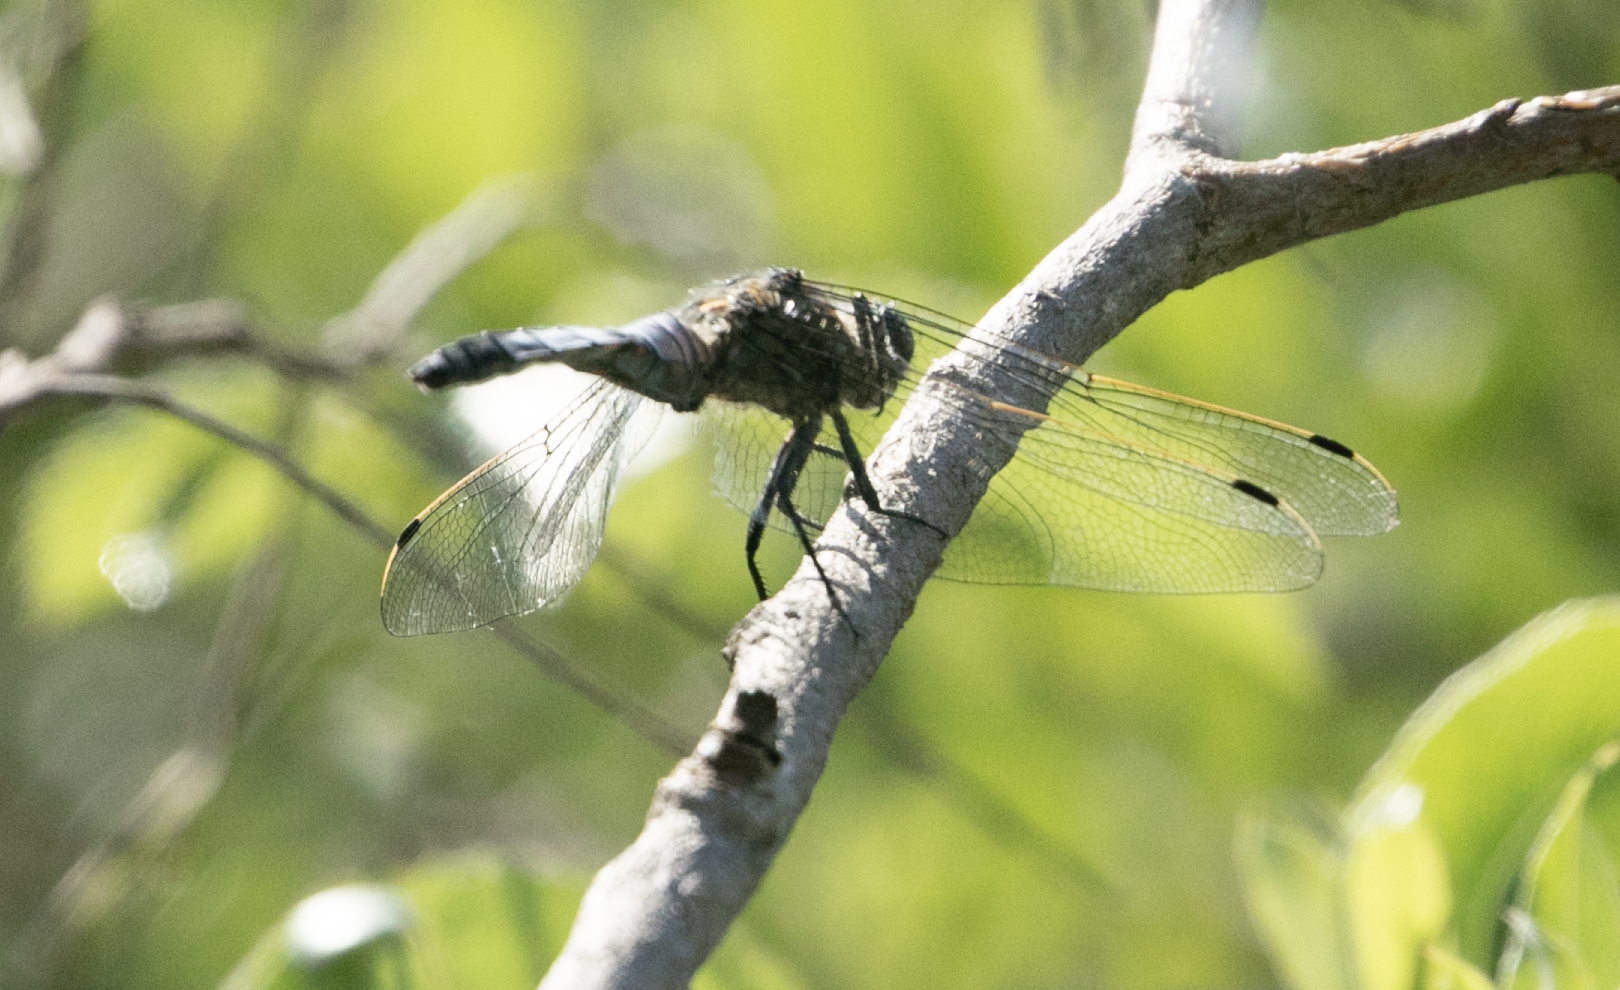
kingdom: Animalia
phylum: Arthropoda
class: Insecta
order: Odonata
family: Libellulidae
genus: Orthetrum
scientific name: Orthetrum cancellatum
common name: Black-tailed skimmer
